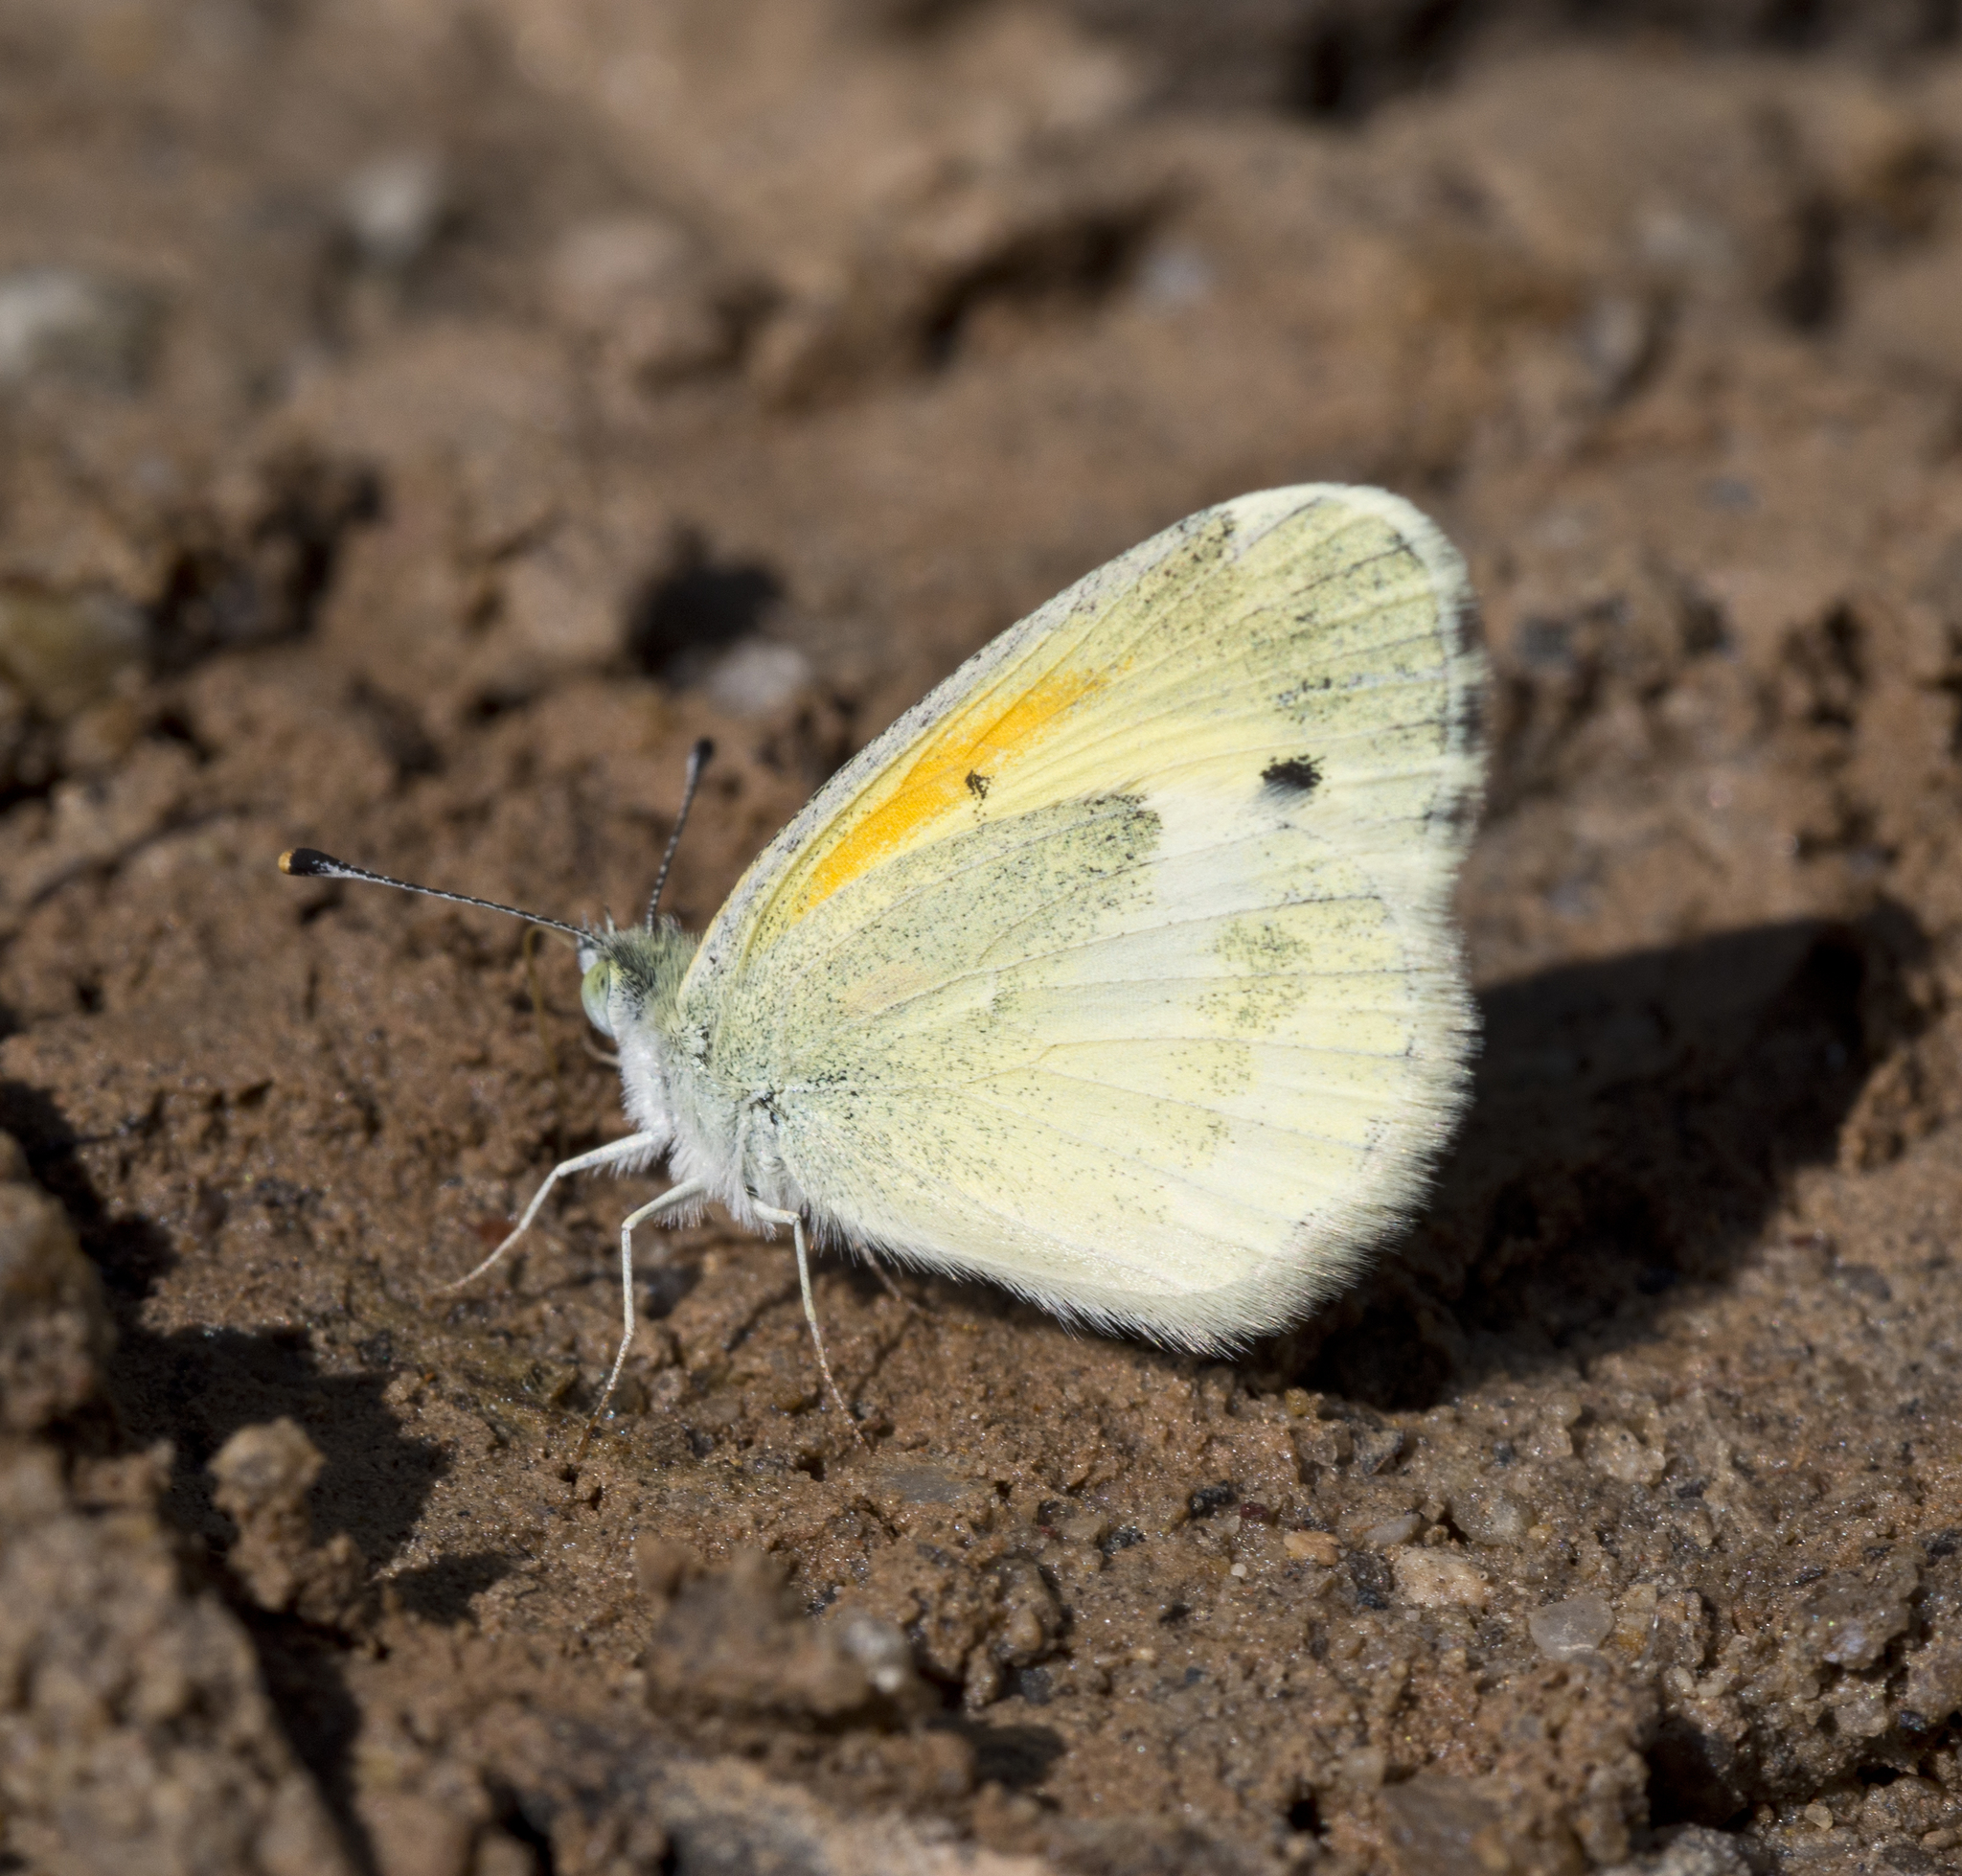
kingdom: Animalia
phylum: Arthropoda
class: Insecta
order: Lepidoptera
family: Pieridae
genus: Nathalis
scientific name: Nathalis iole
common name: Dainty sulphur
